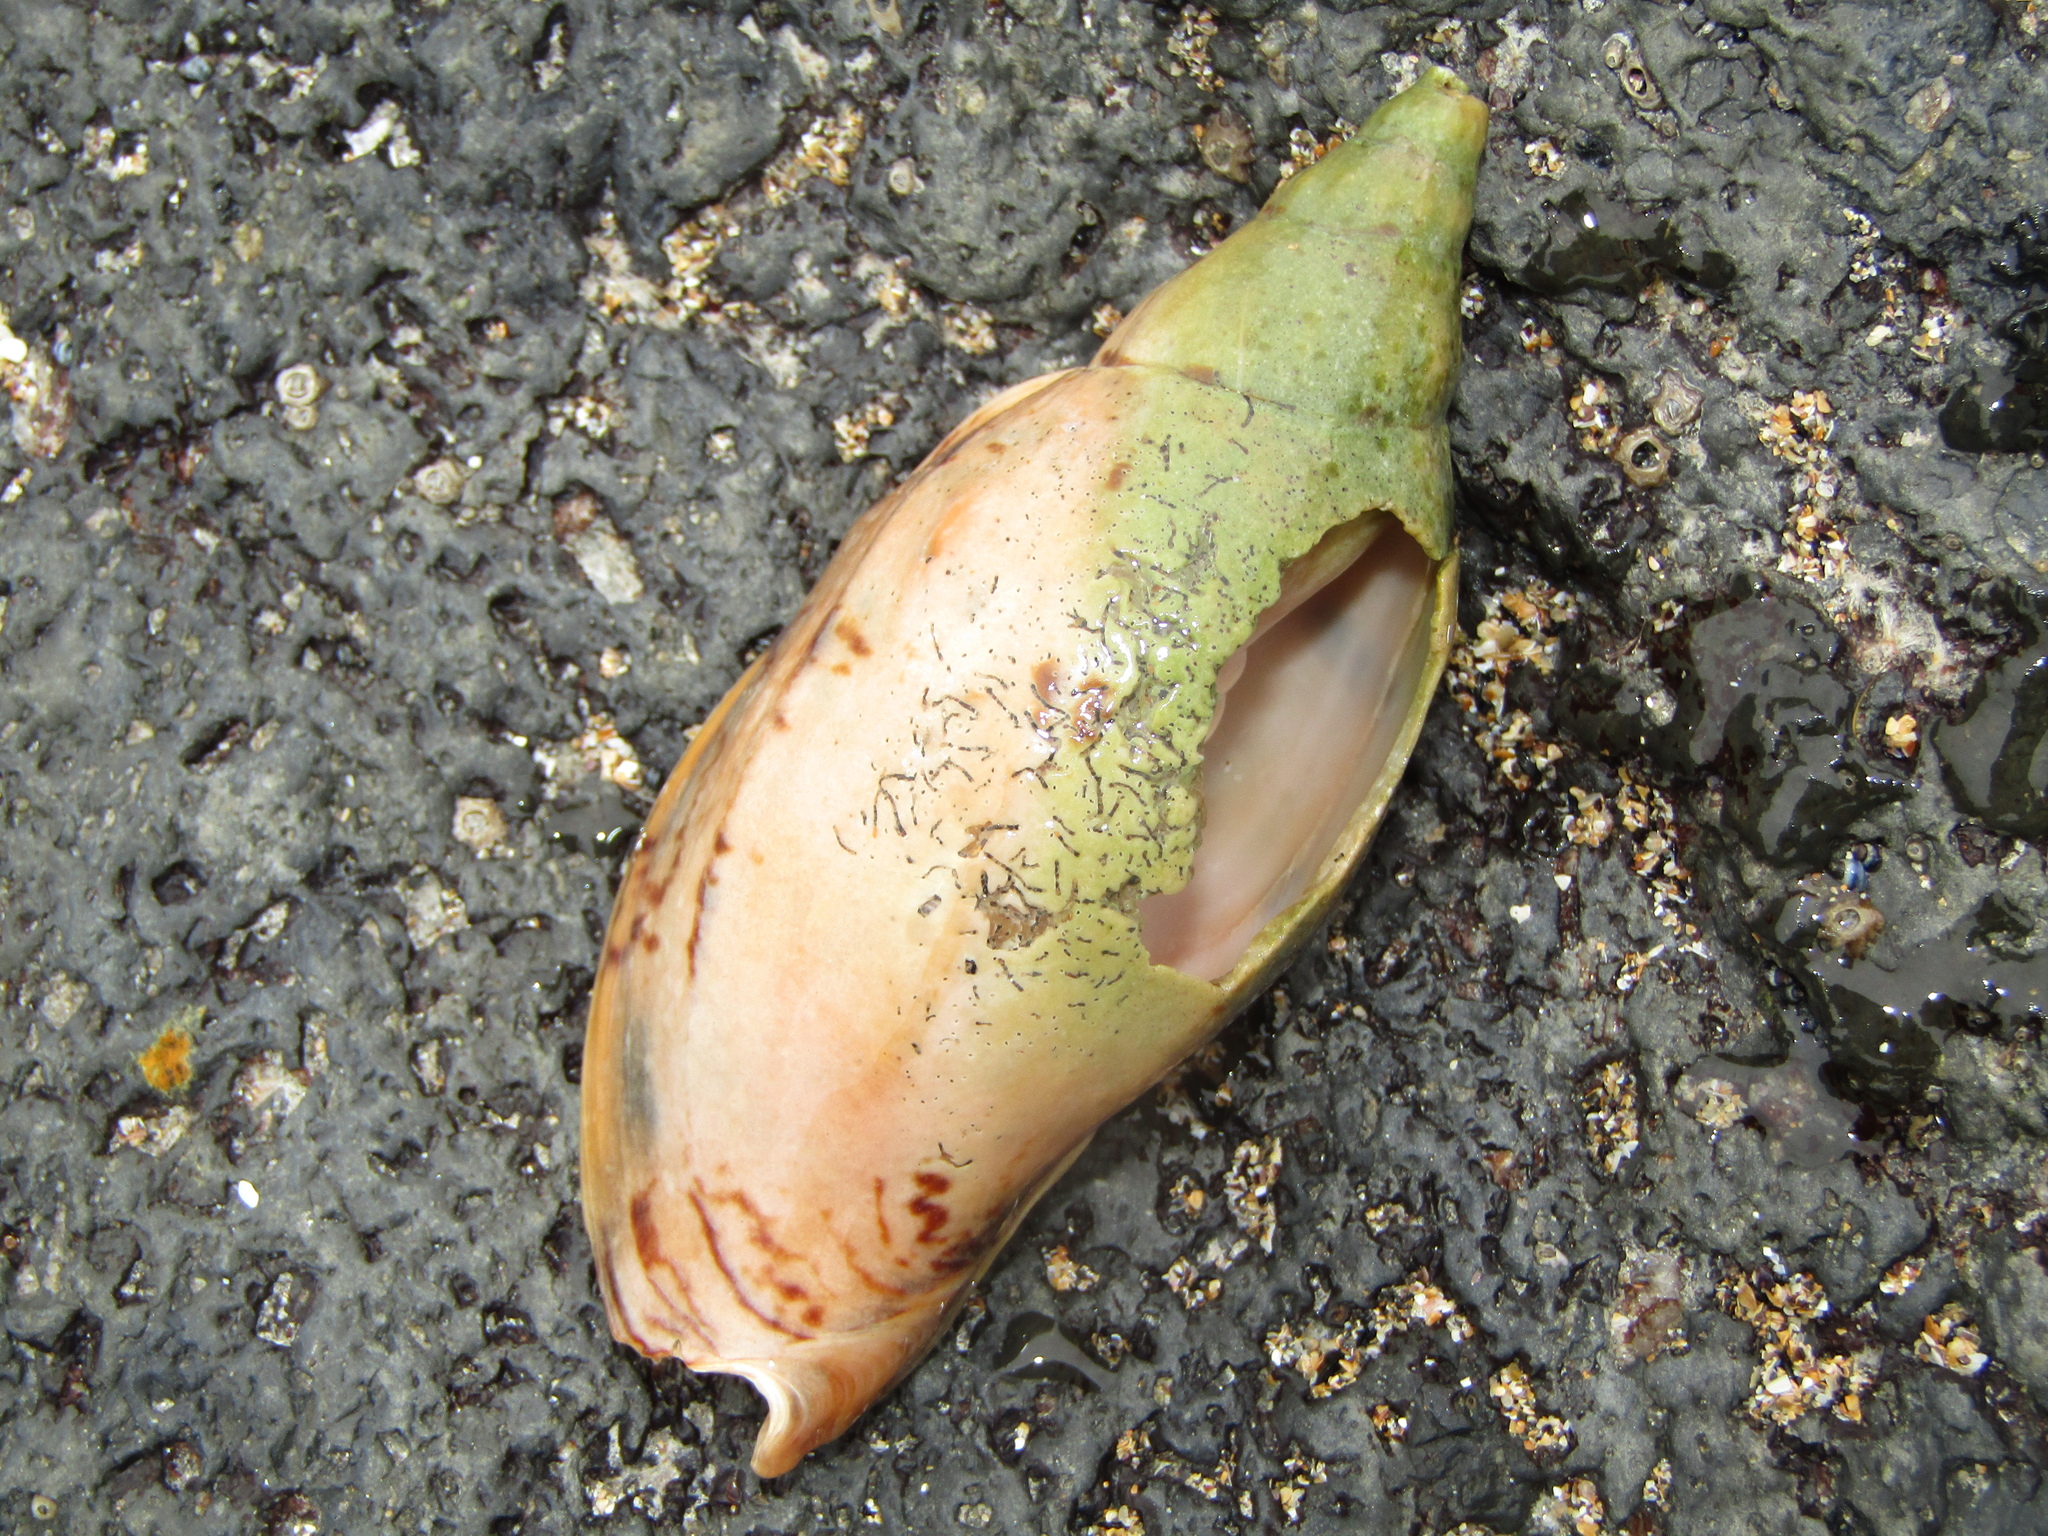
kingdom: Animalia
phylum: Mollusca
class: Gastropoda
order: Neogastropoda
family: Volutidae
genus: Alcithoe
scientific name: Alcithoe arabica
